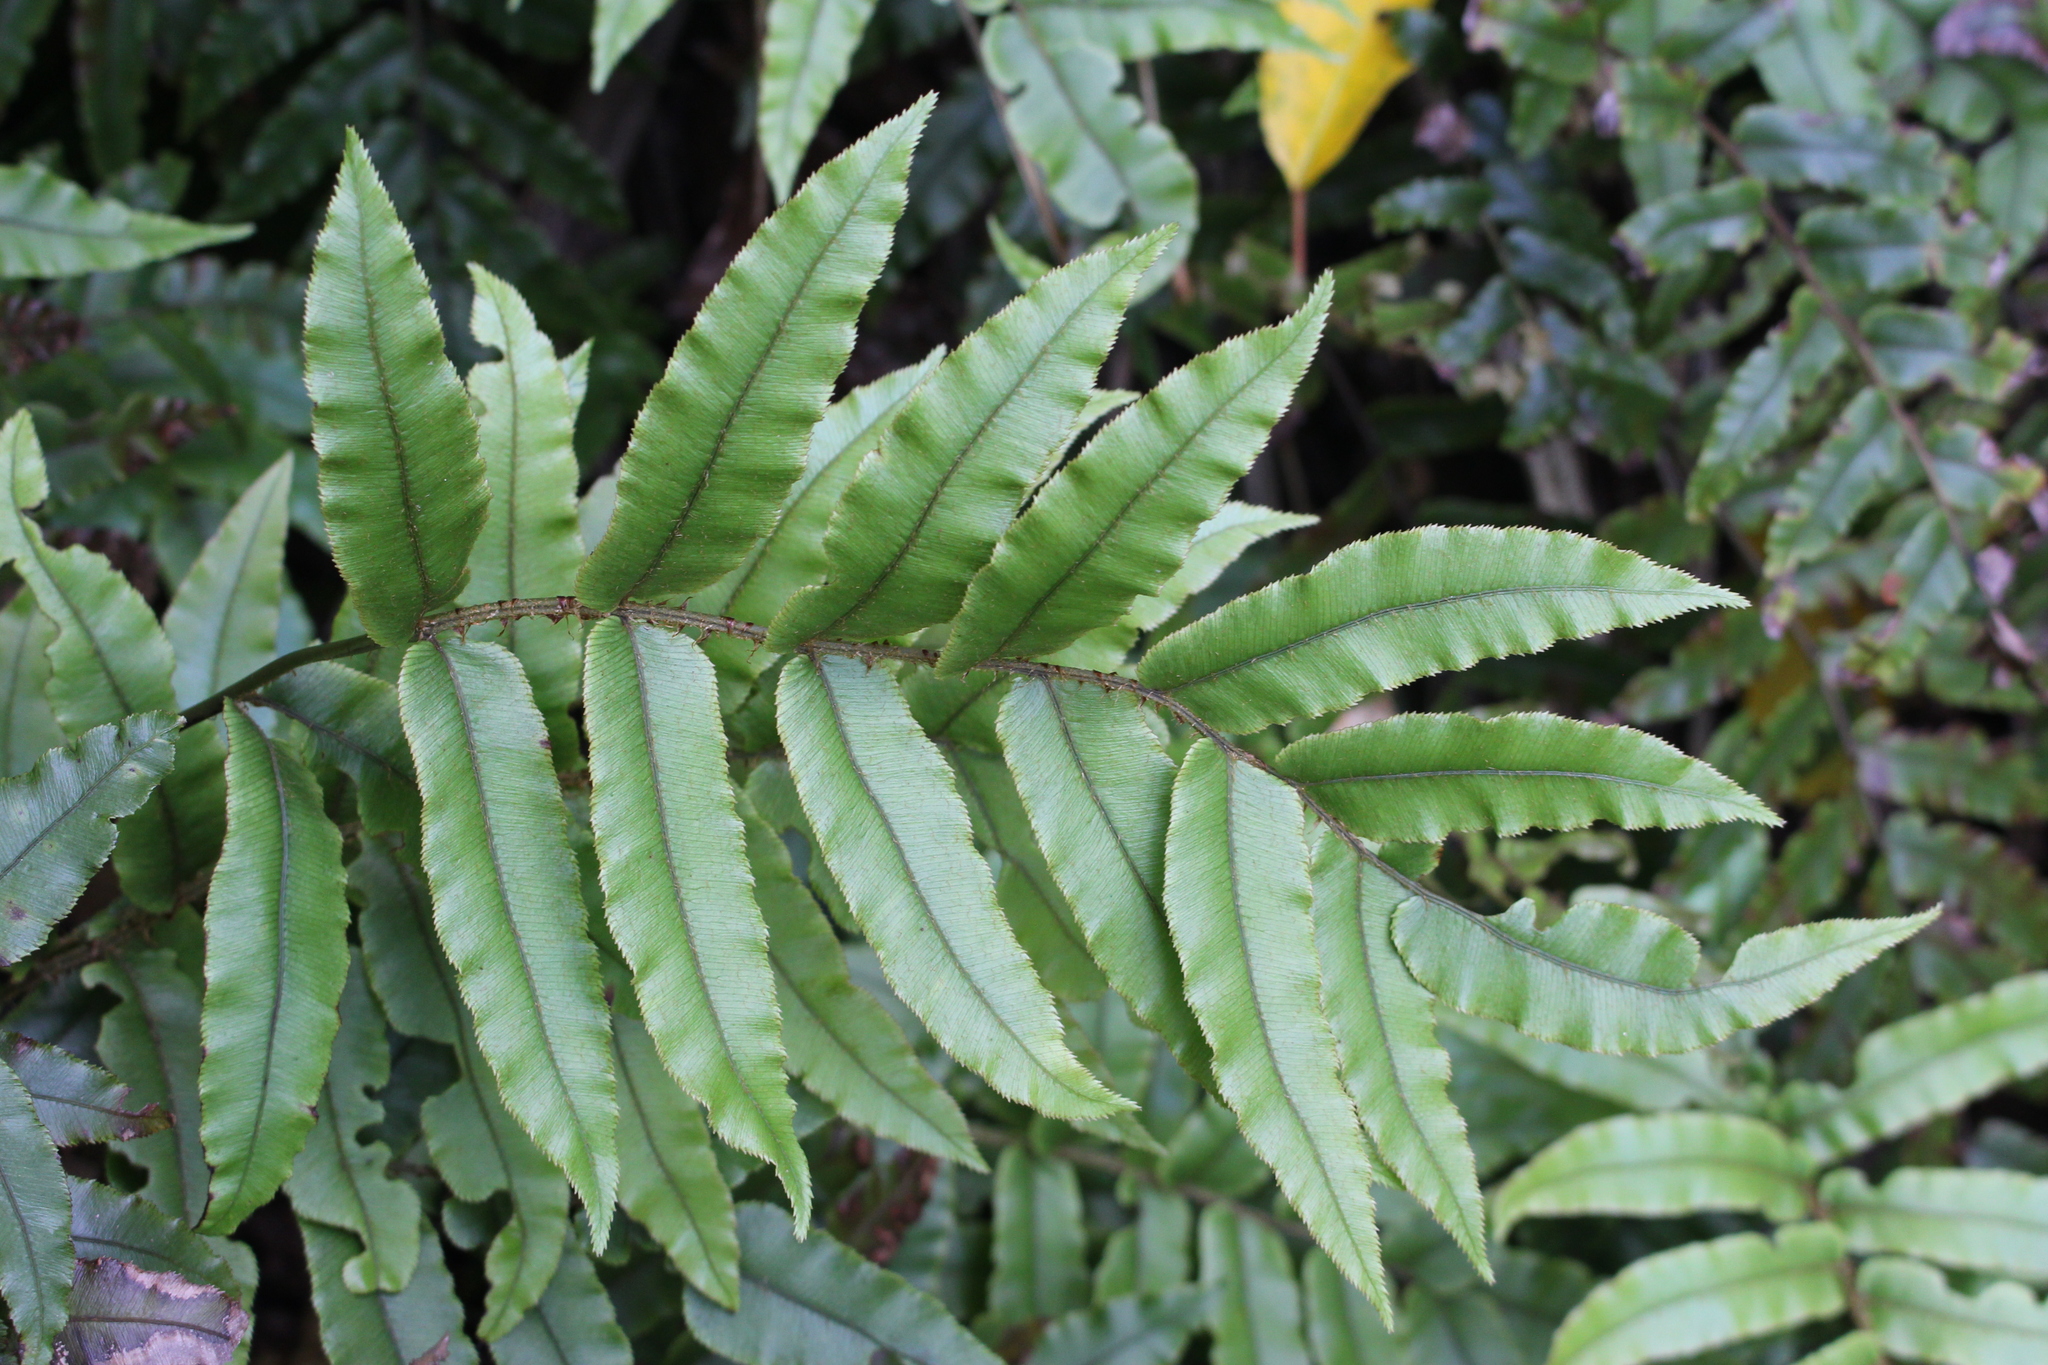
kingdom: Plantae
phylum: Tracheophyta
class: Polypodiopsida
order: Polypodiales
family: Blechnaceae
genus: Parablechnum
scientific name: Parablechnum procerum
